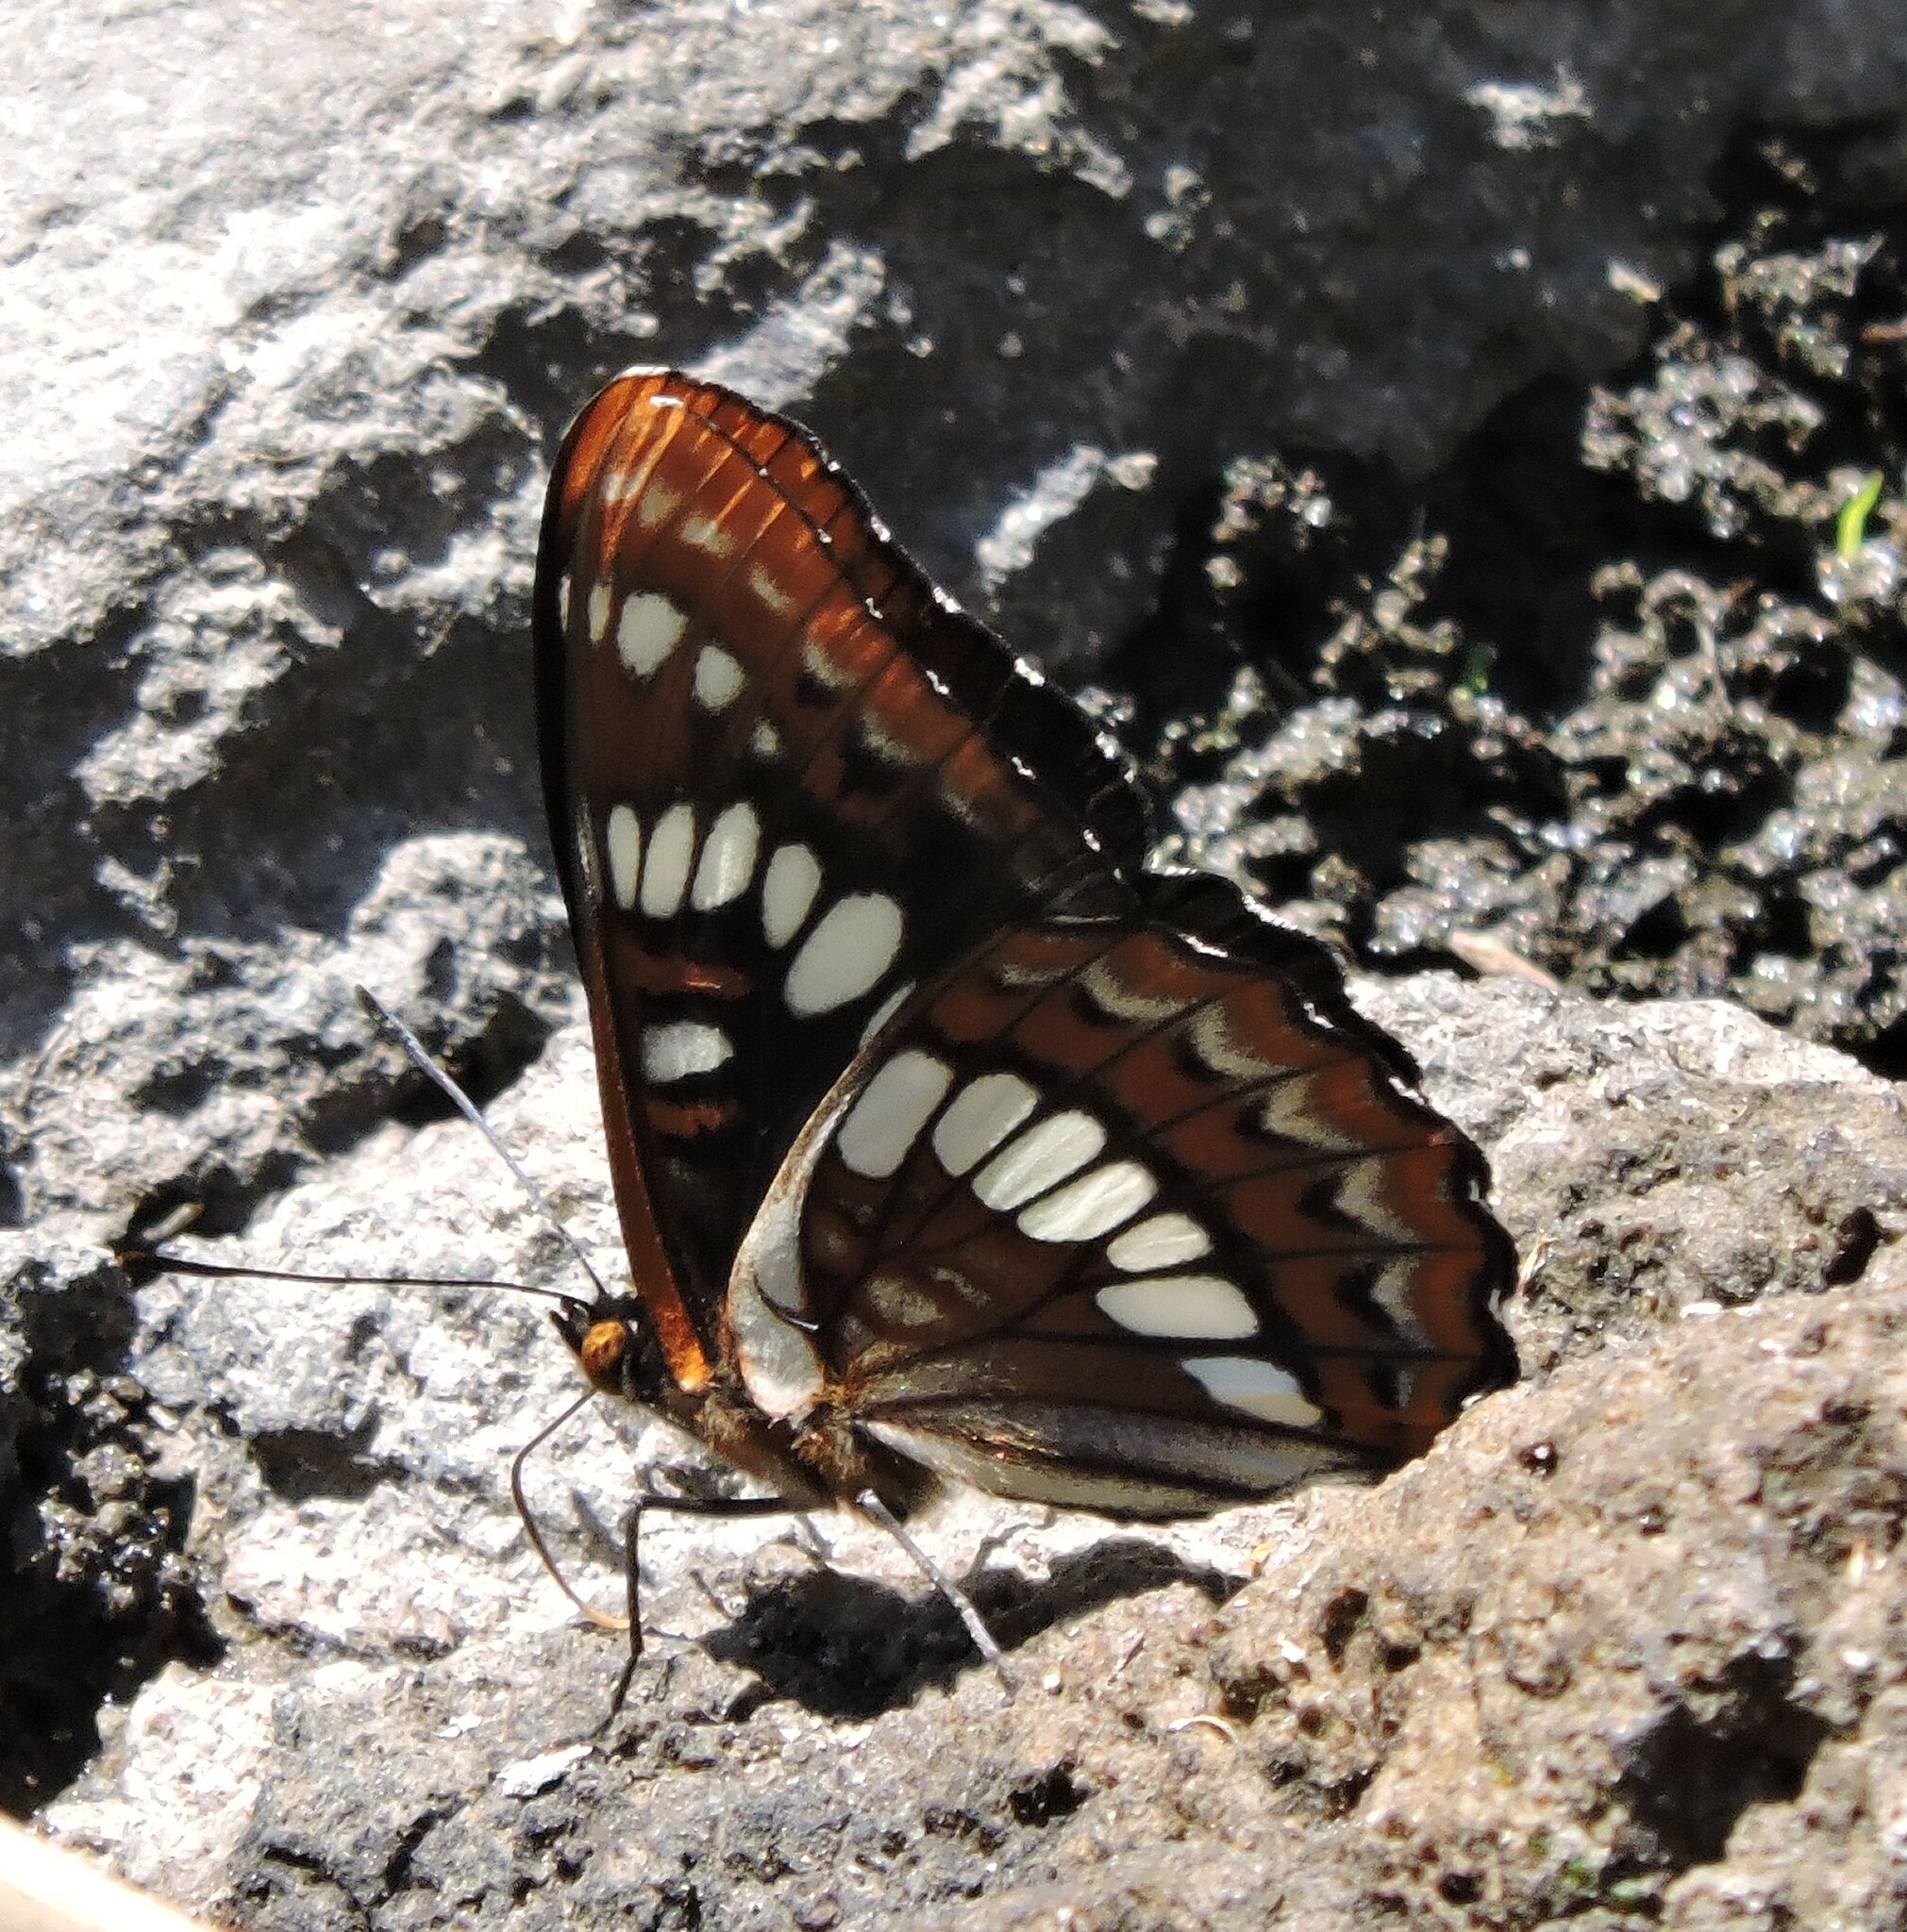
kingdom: Animalia
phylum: Arthropoda
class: Insecta
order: Lepidoptera
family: Nymphalidae
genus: Limenitis
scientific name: Limenitis lorquini
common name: Lorquin's admiral
